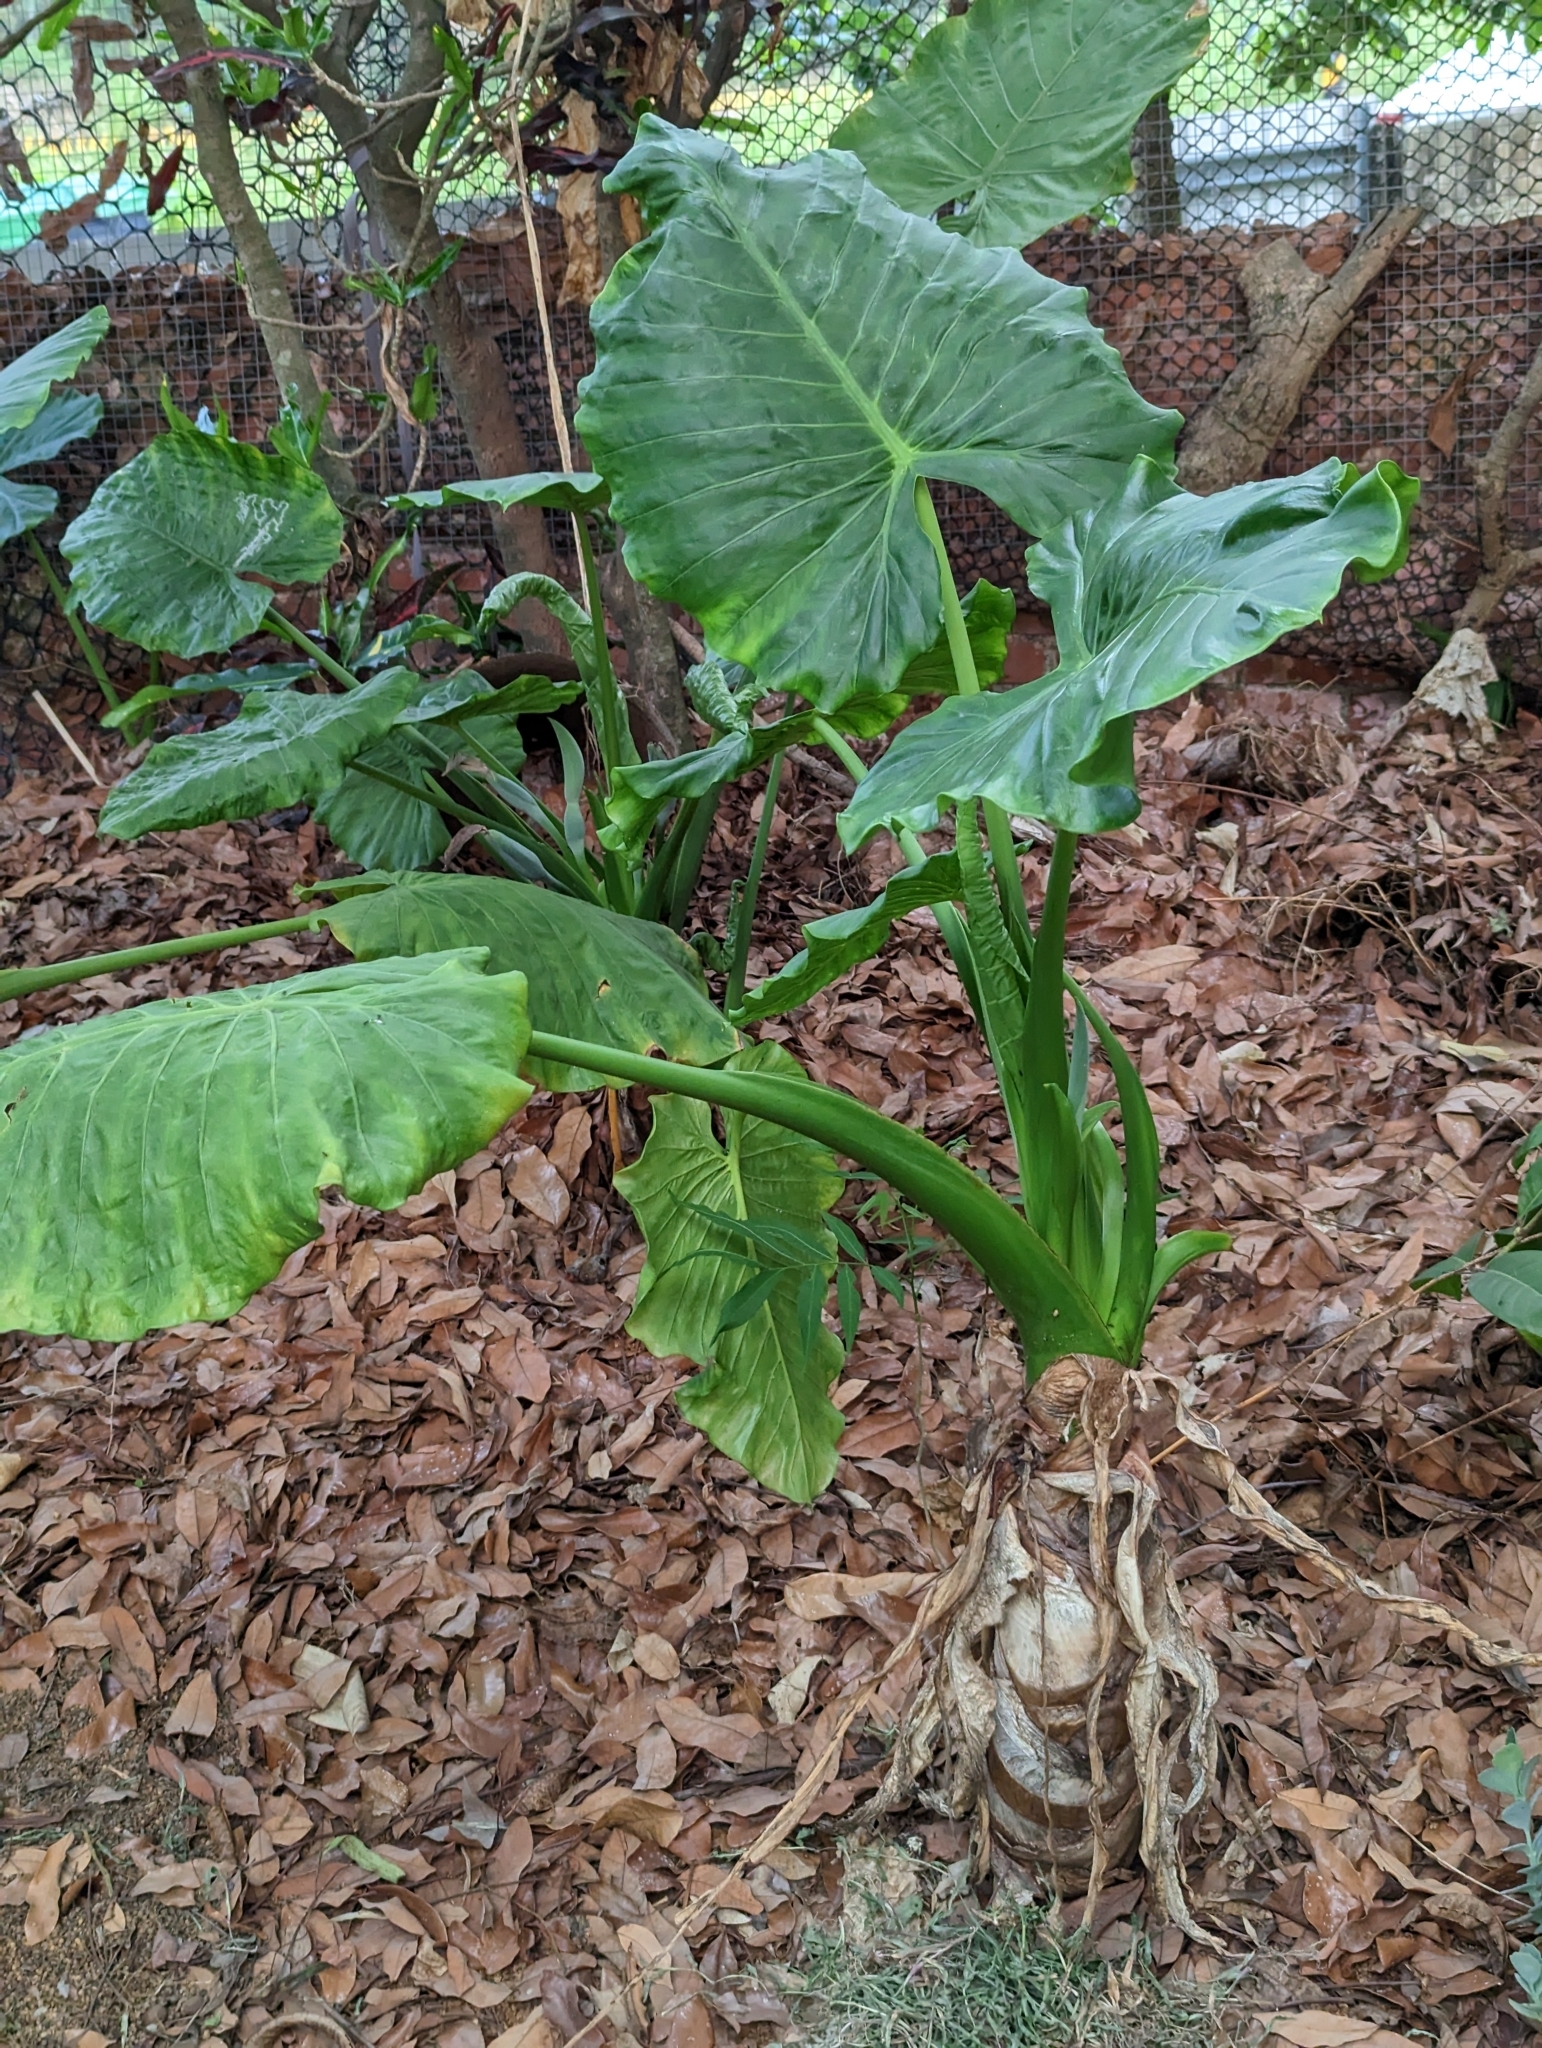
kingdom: Plantae
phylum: Tracheophyta
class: Liliopsida
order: Alismatales
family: Araceae
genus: Alocasia
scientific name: Alocasia odora
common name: Asian taro
